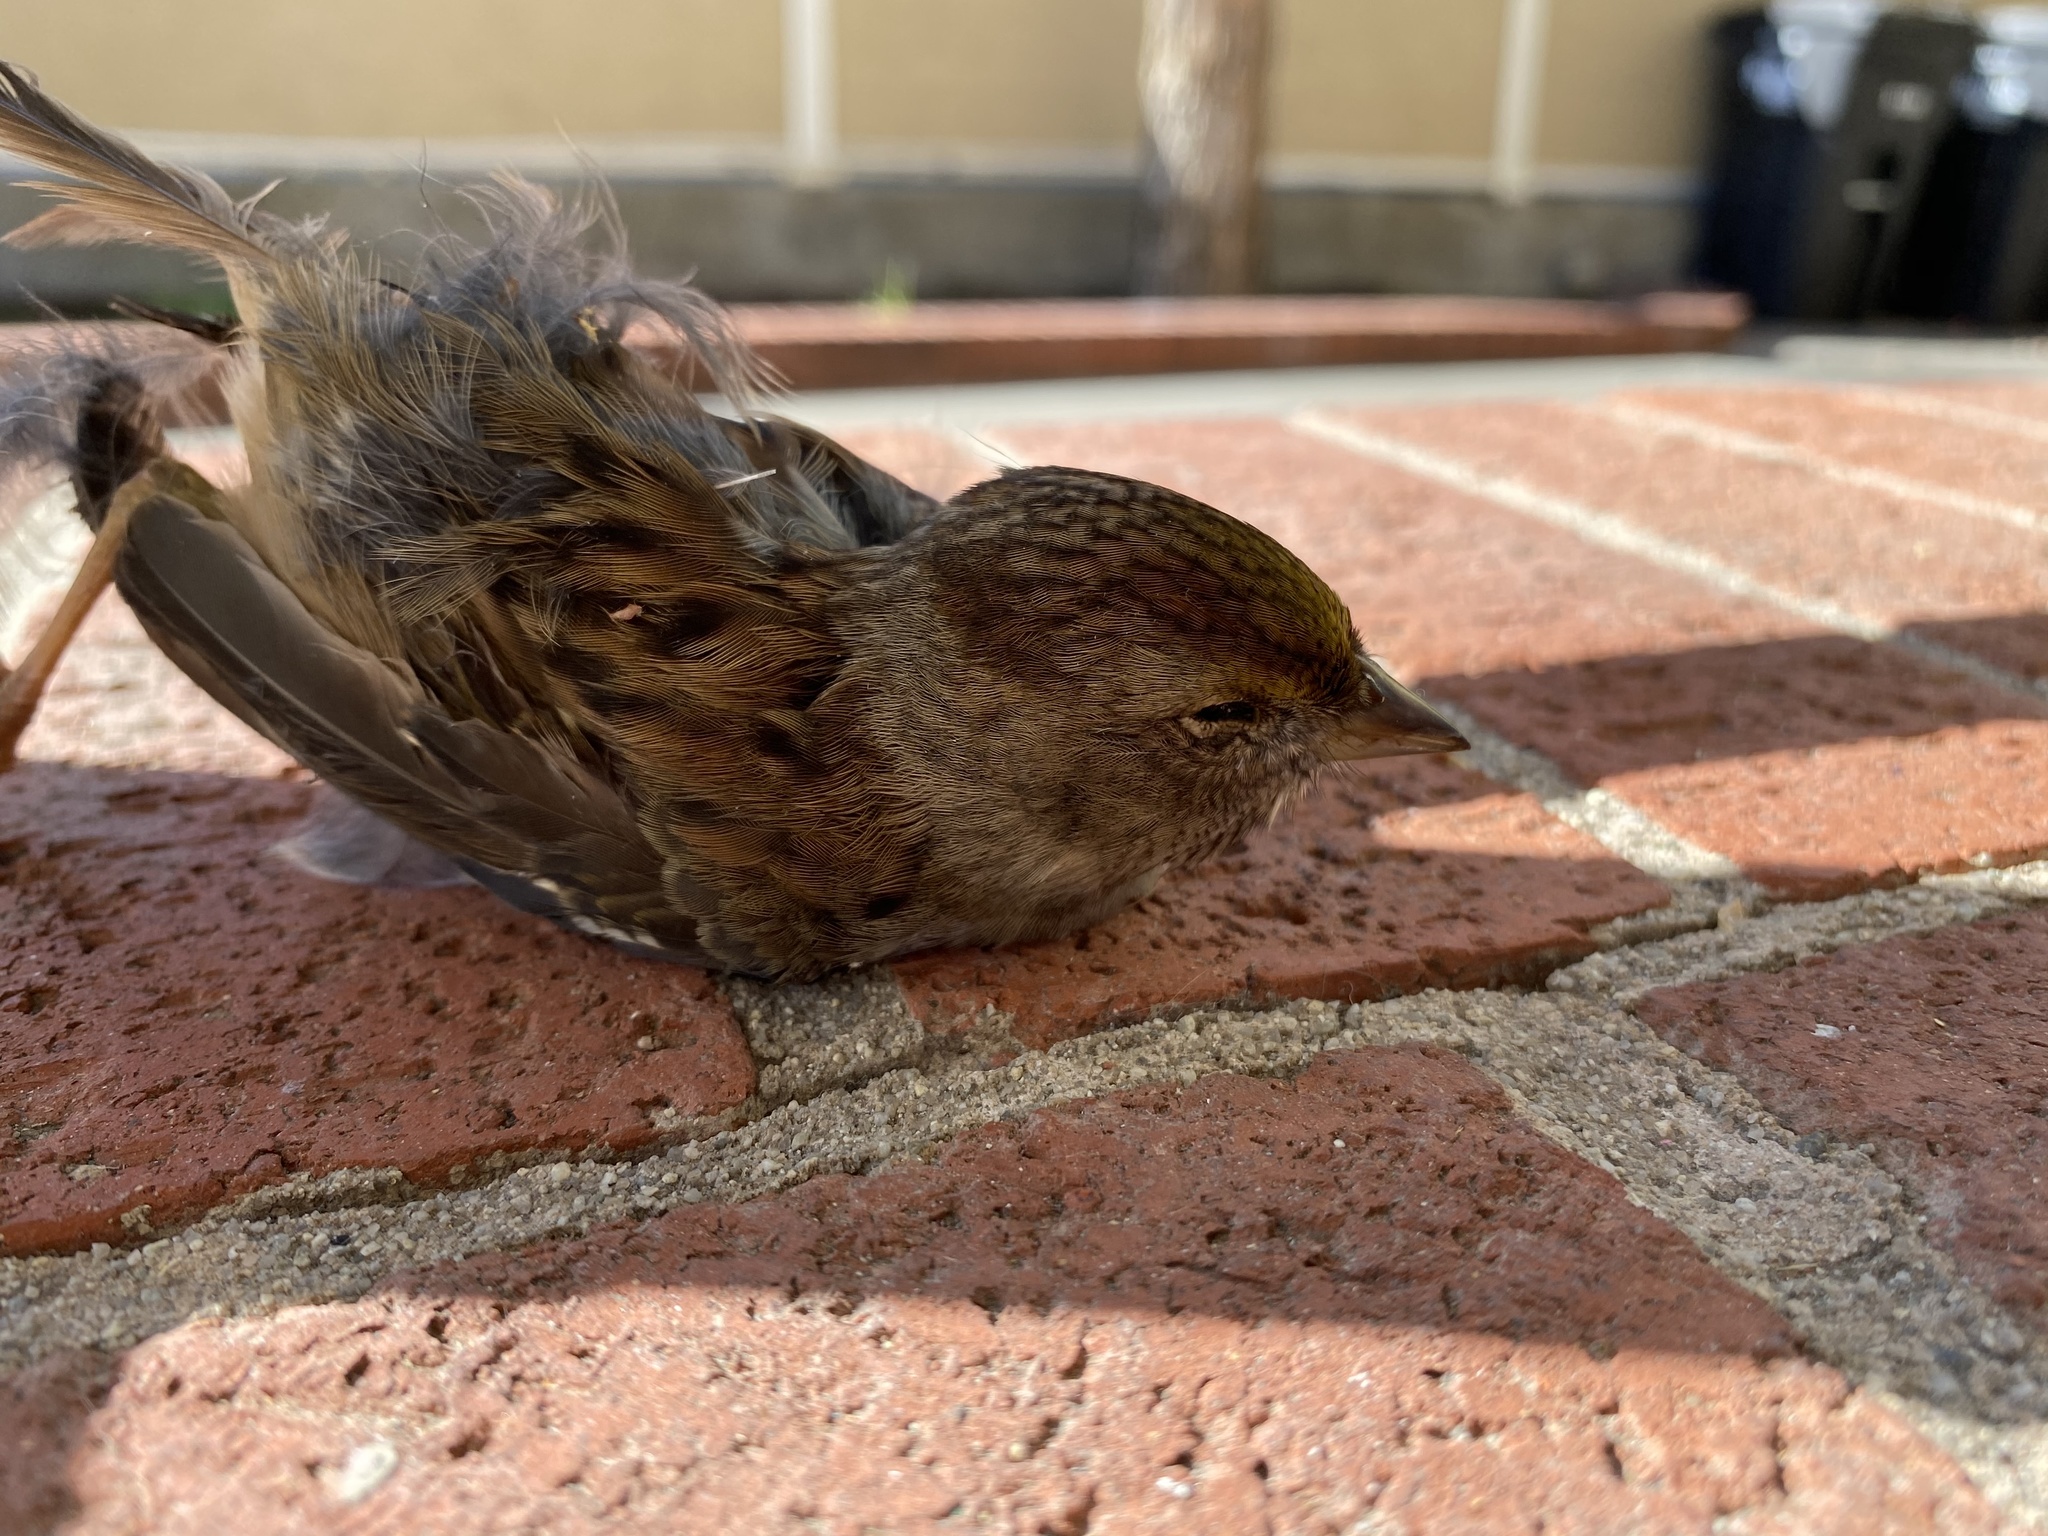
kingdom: Animalia
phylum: Chordata
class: Aves
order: Passeriformes
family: Passerellidae
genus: Zonotrichia
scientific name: Zonotrichia atricapilla
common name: Golden-crowned sparrow
